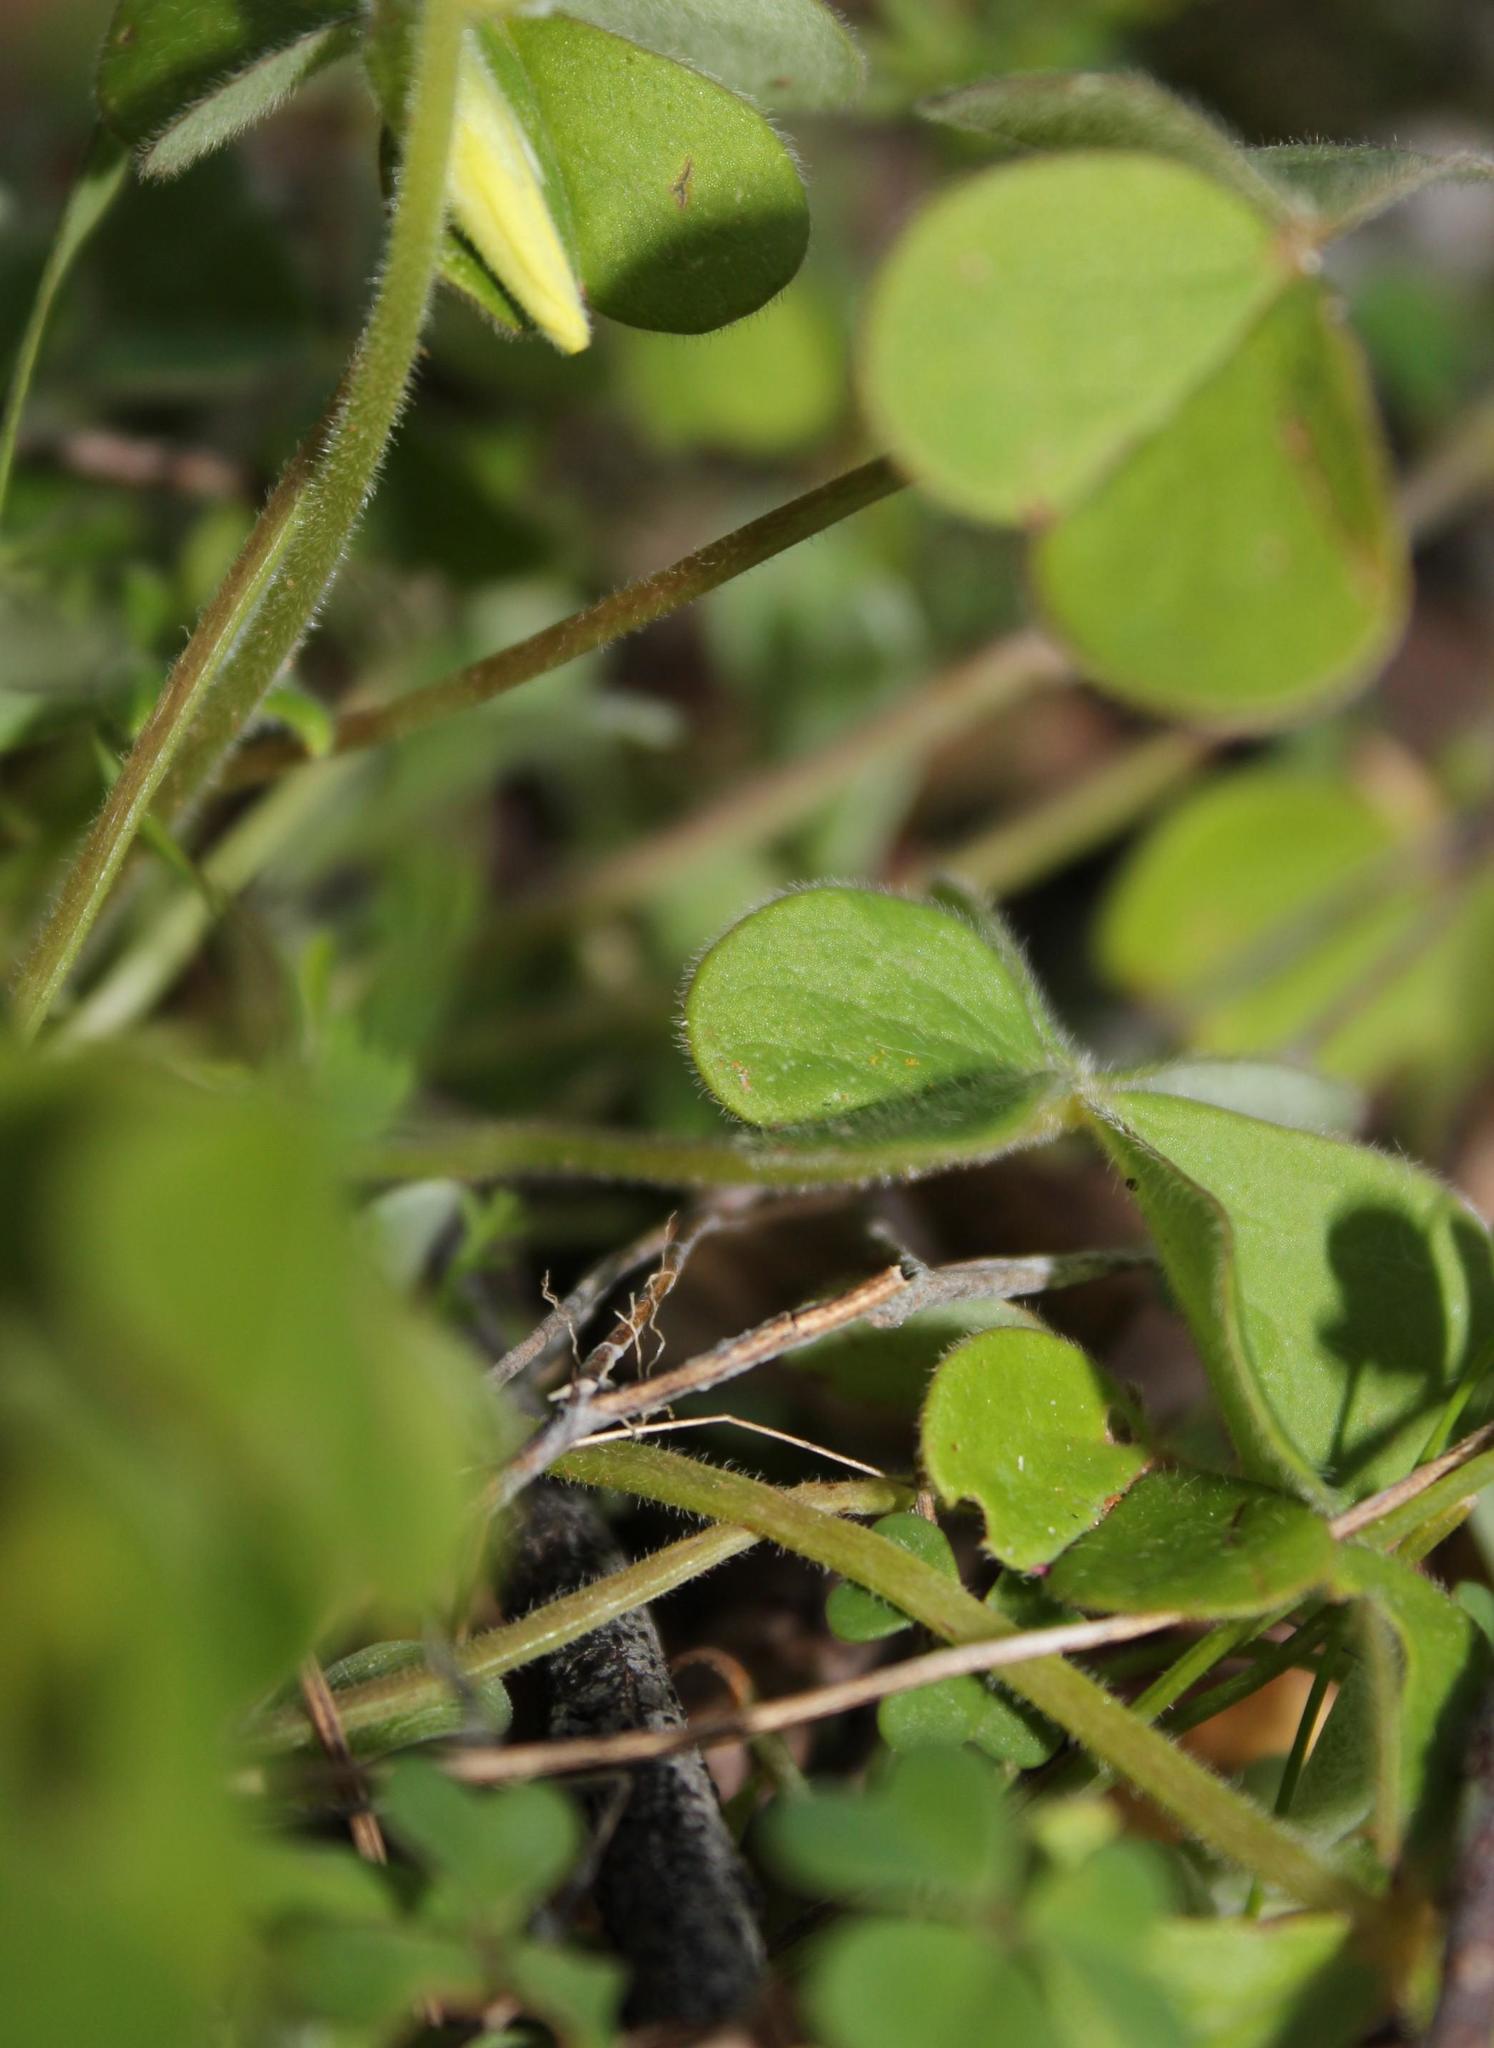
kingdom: Plantae
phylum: Tracheophyta
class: Magnoliopsida
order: Oxalidales
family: Oxalidaceae
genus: Oxalis
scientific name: Oxalis compressa
